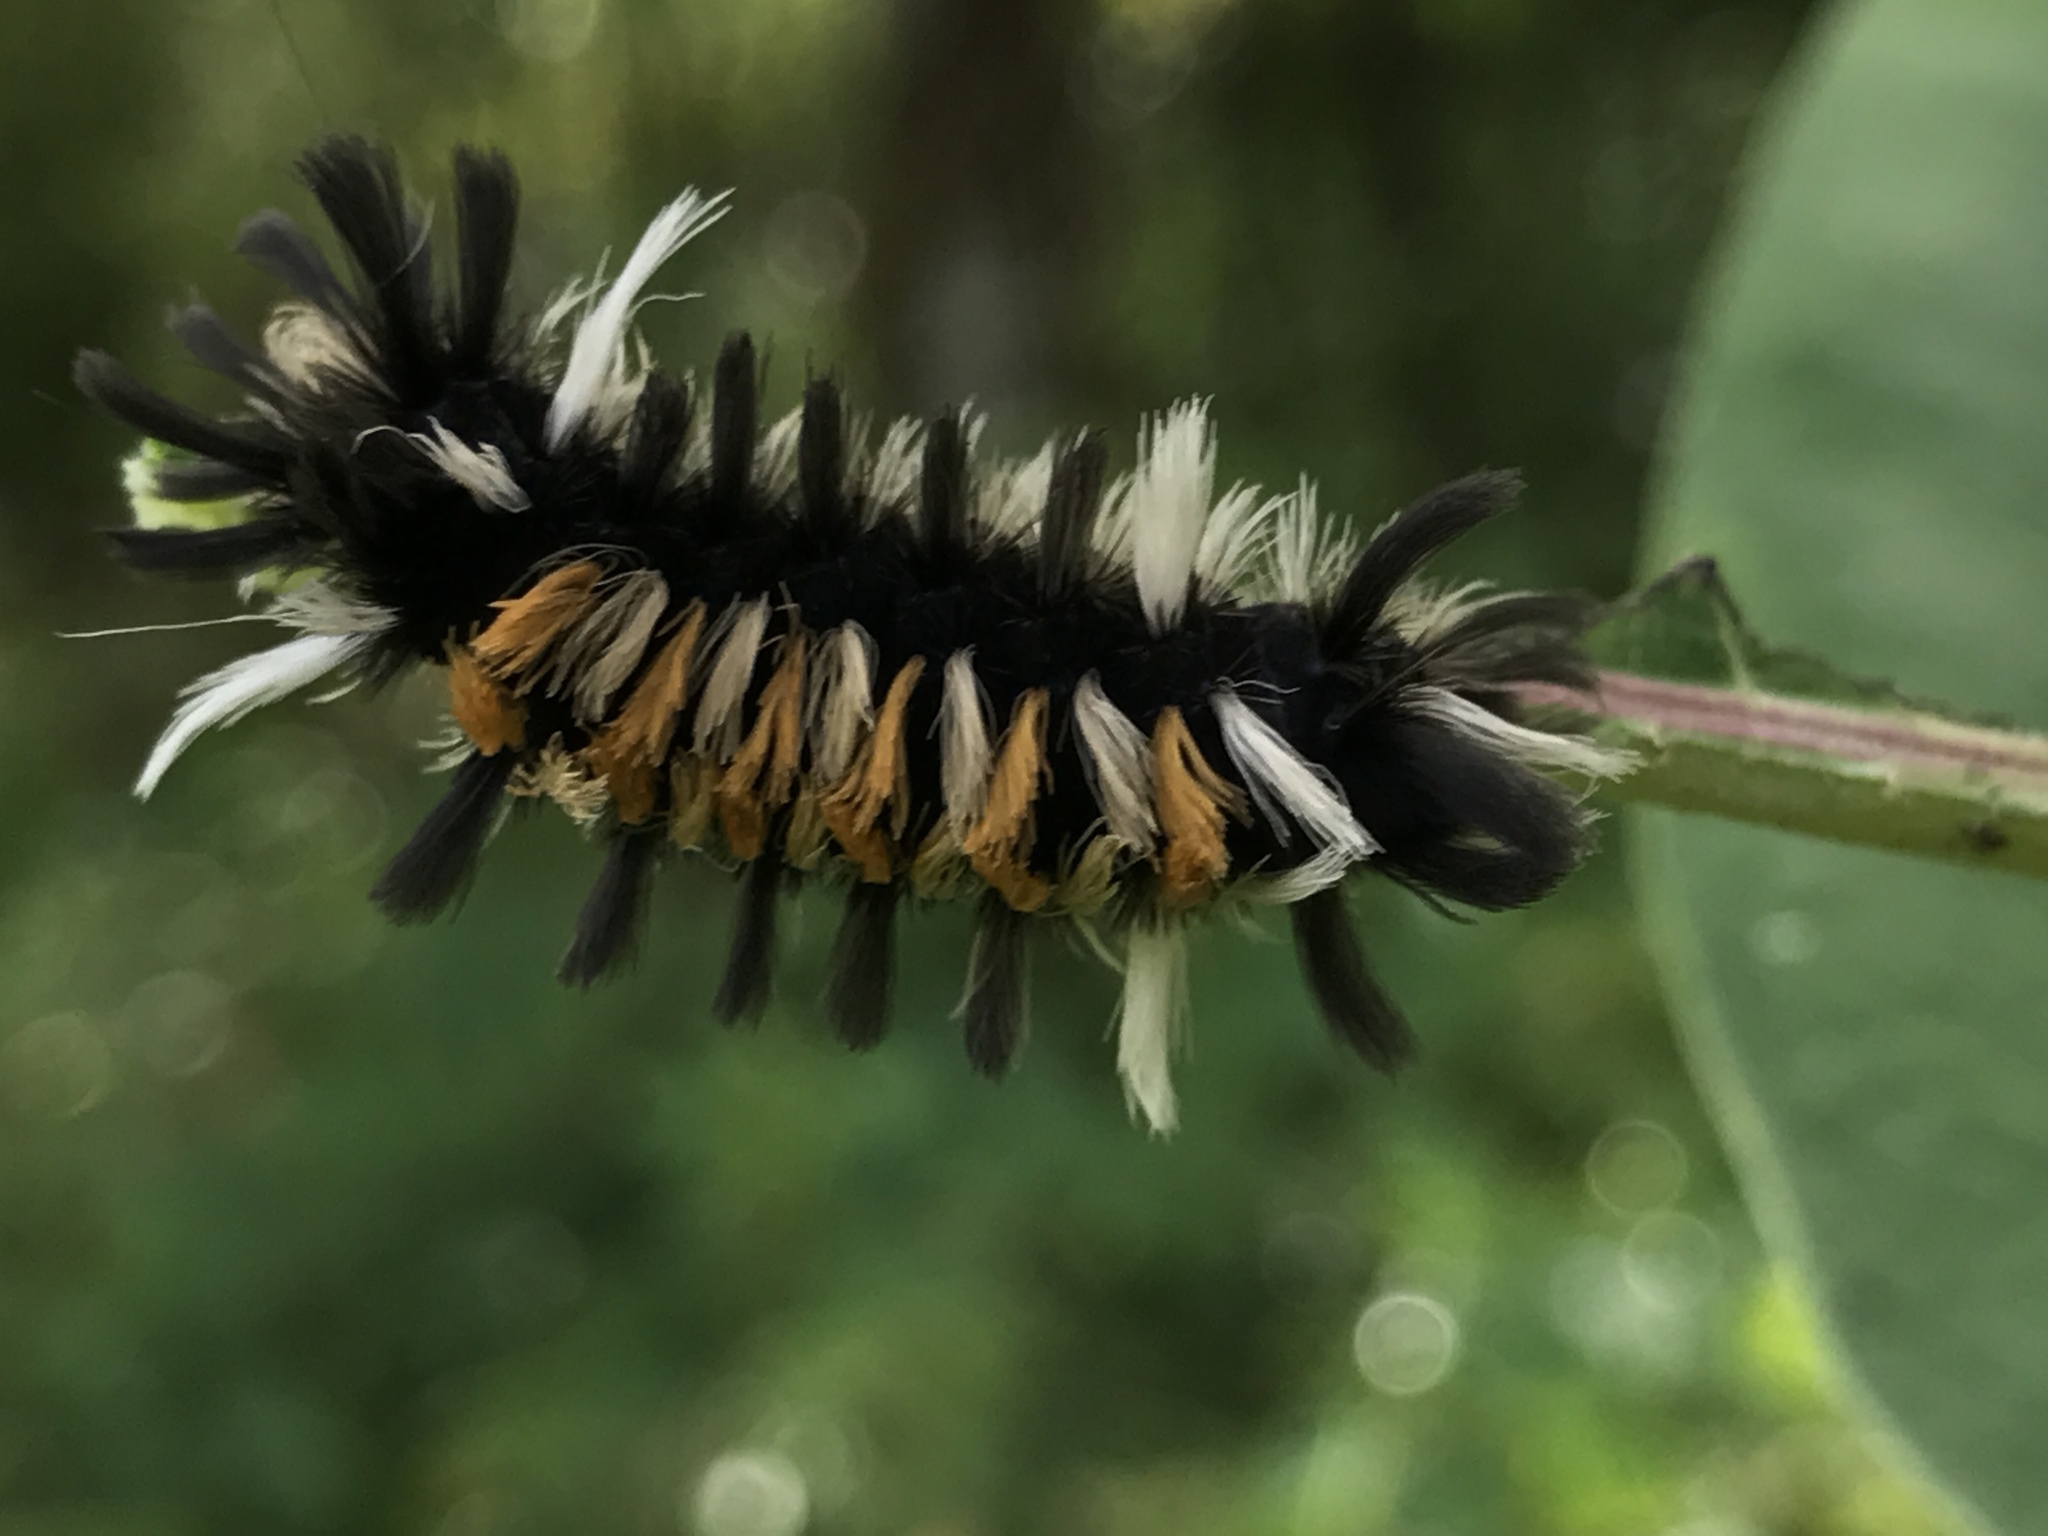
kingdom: Animalia
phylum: Arthropoda
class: Insecta
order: Lepidoptera
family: Erebidae
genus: Euchaetes
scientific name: Euchaetes egle
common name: Milkweed tussock moth
